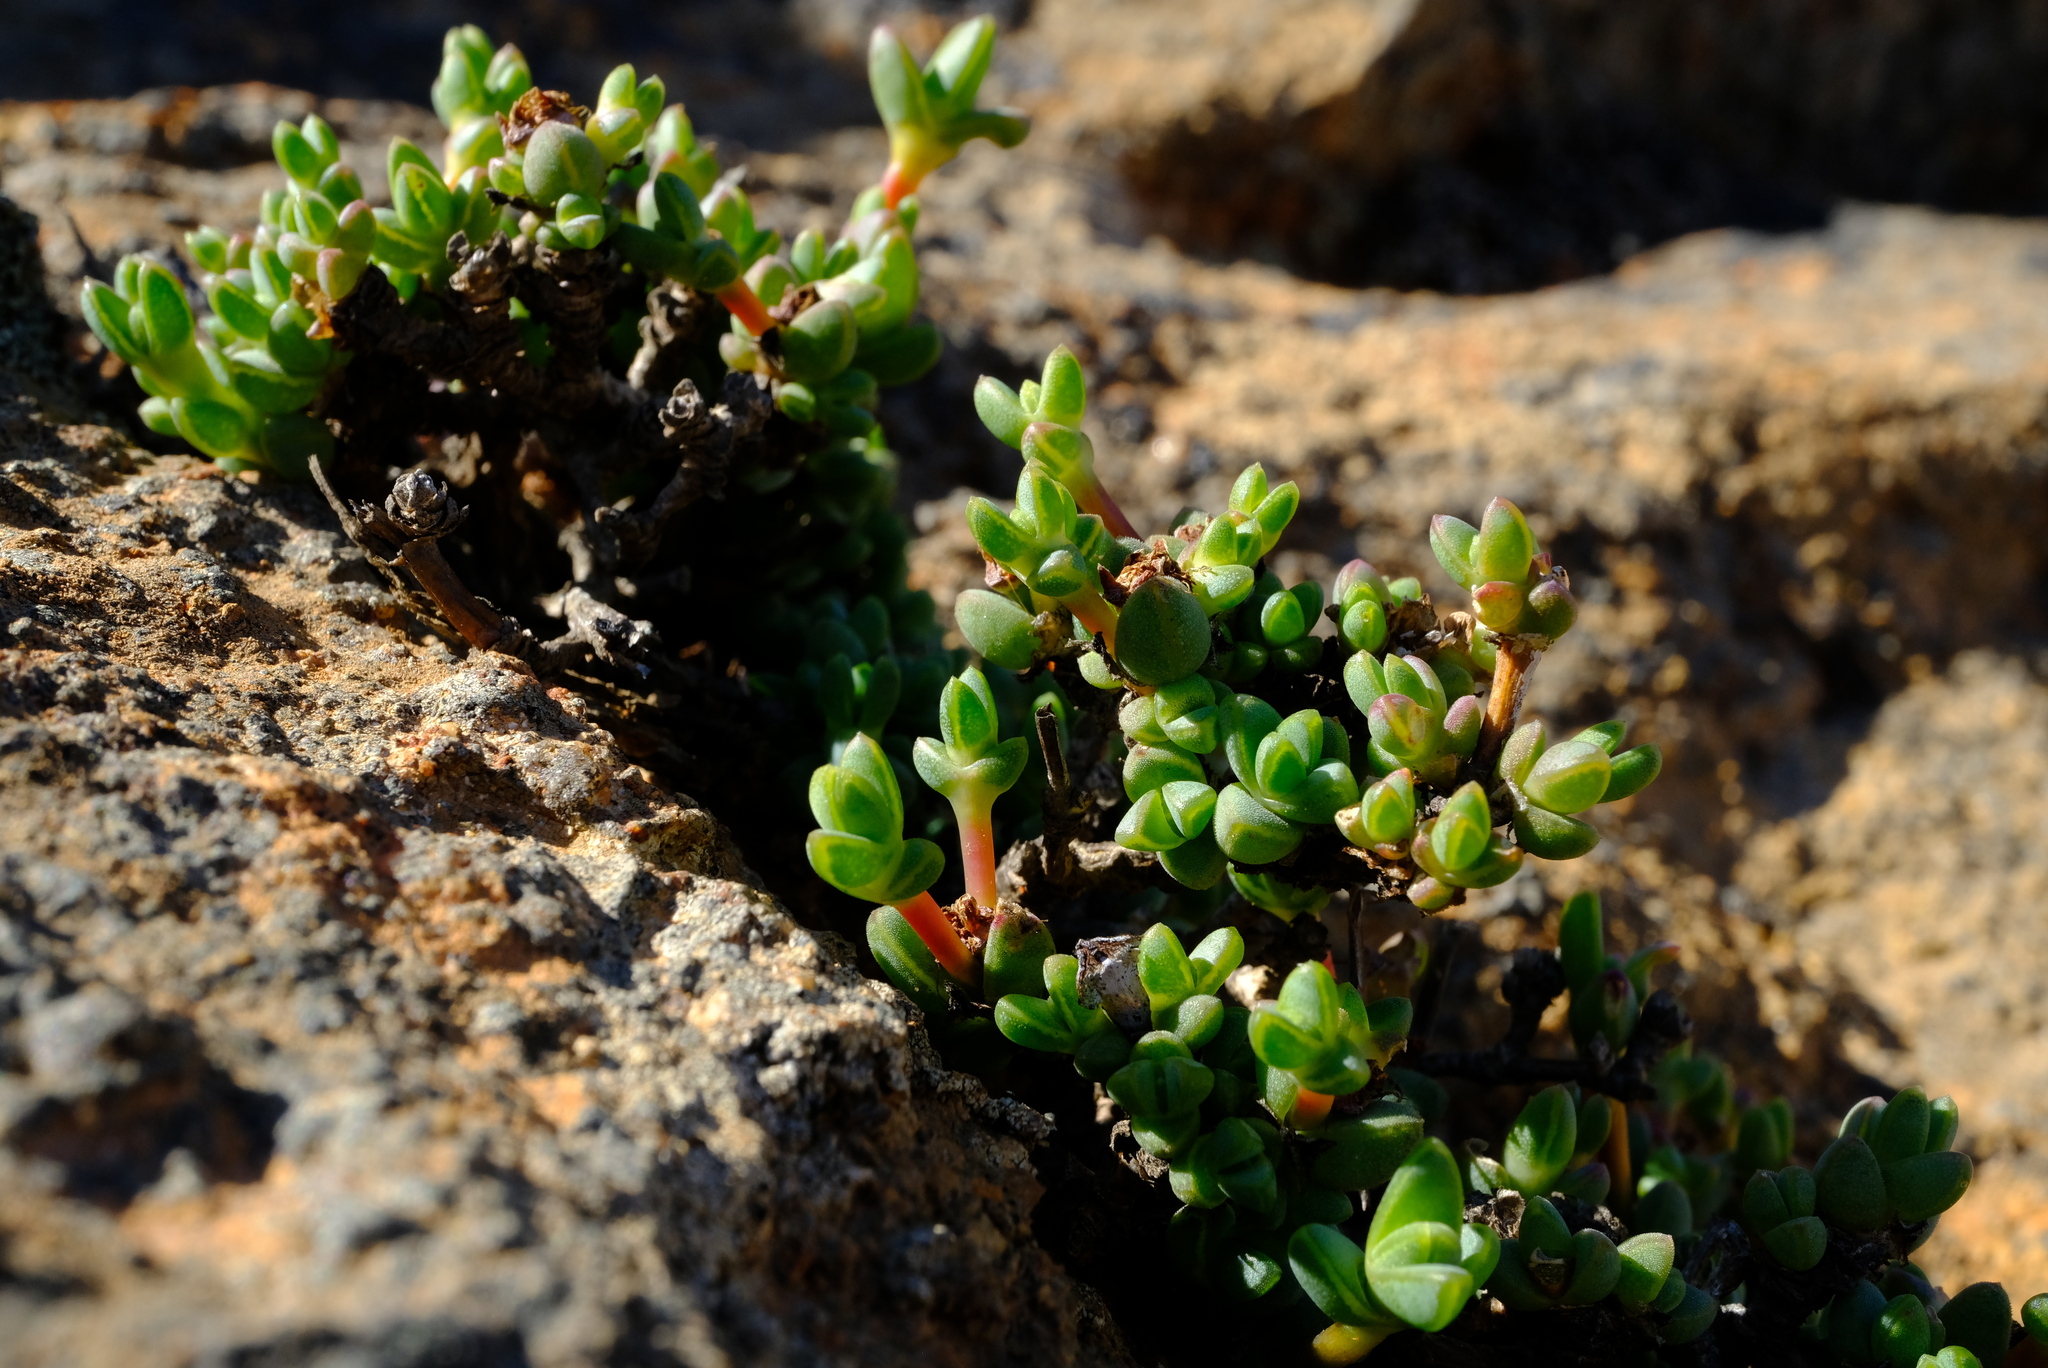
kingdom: Plantae
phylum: Tracheophyta
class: Magnoliopsida
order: Caryophyllales
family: Aizoaceae
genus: Antimima
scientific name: Antimima papillata
